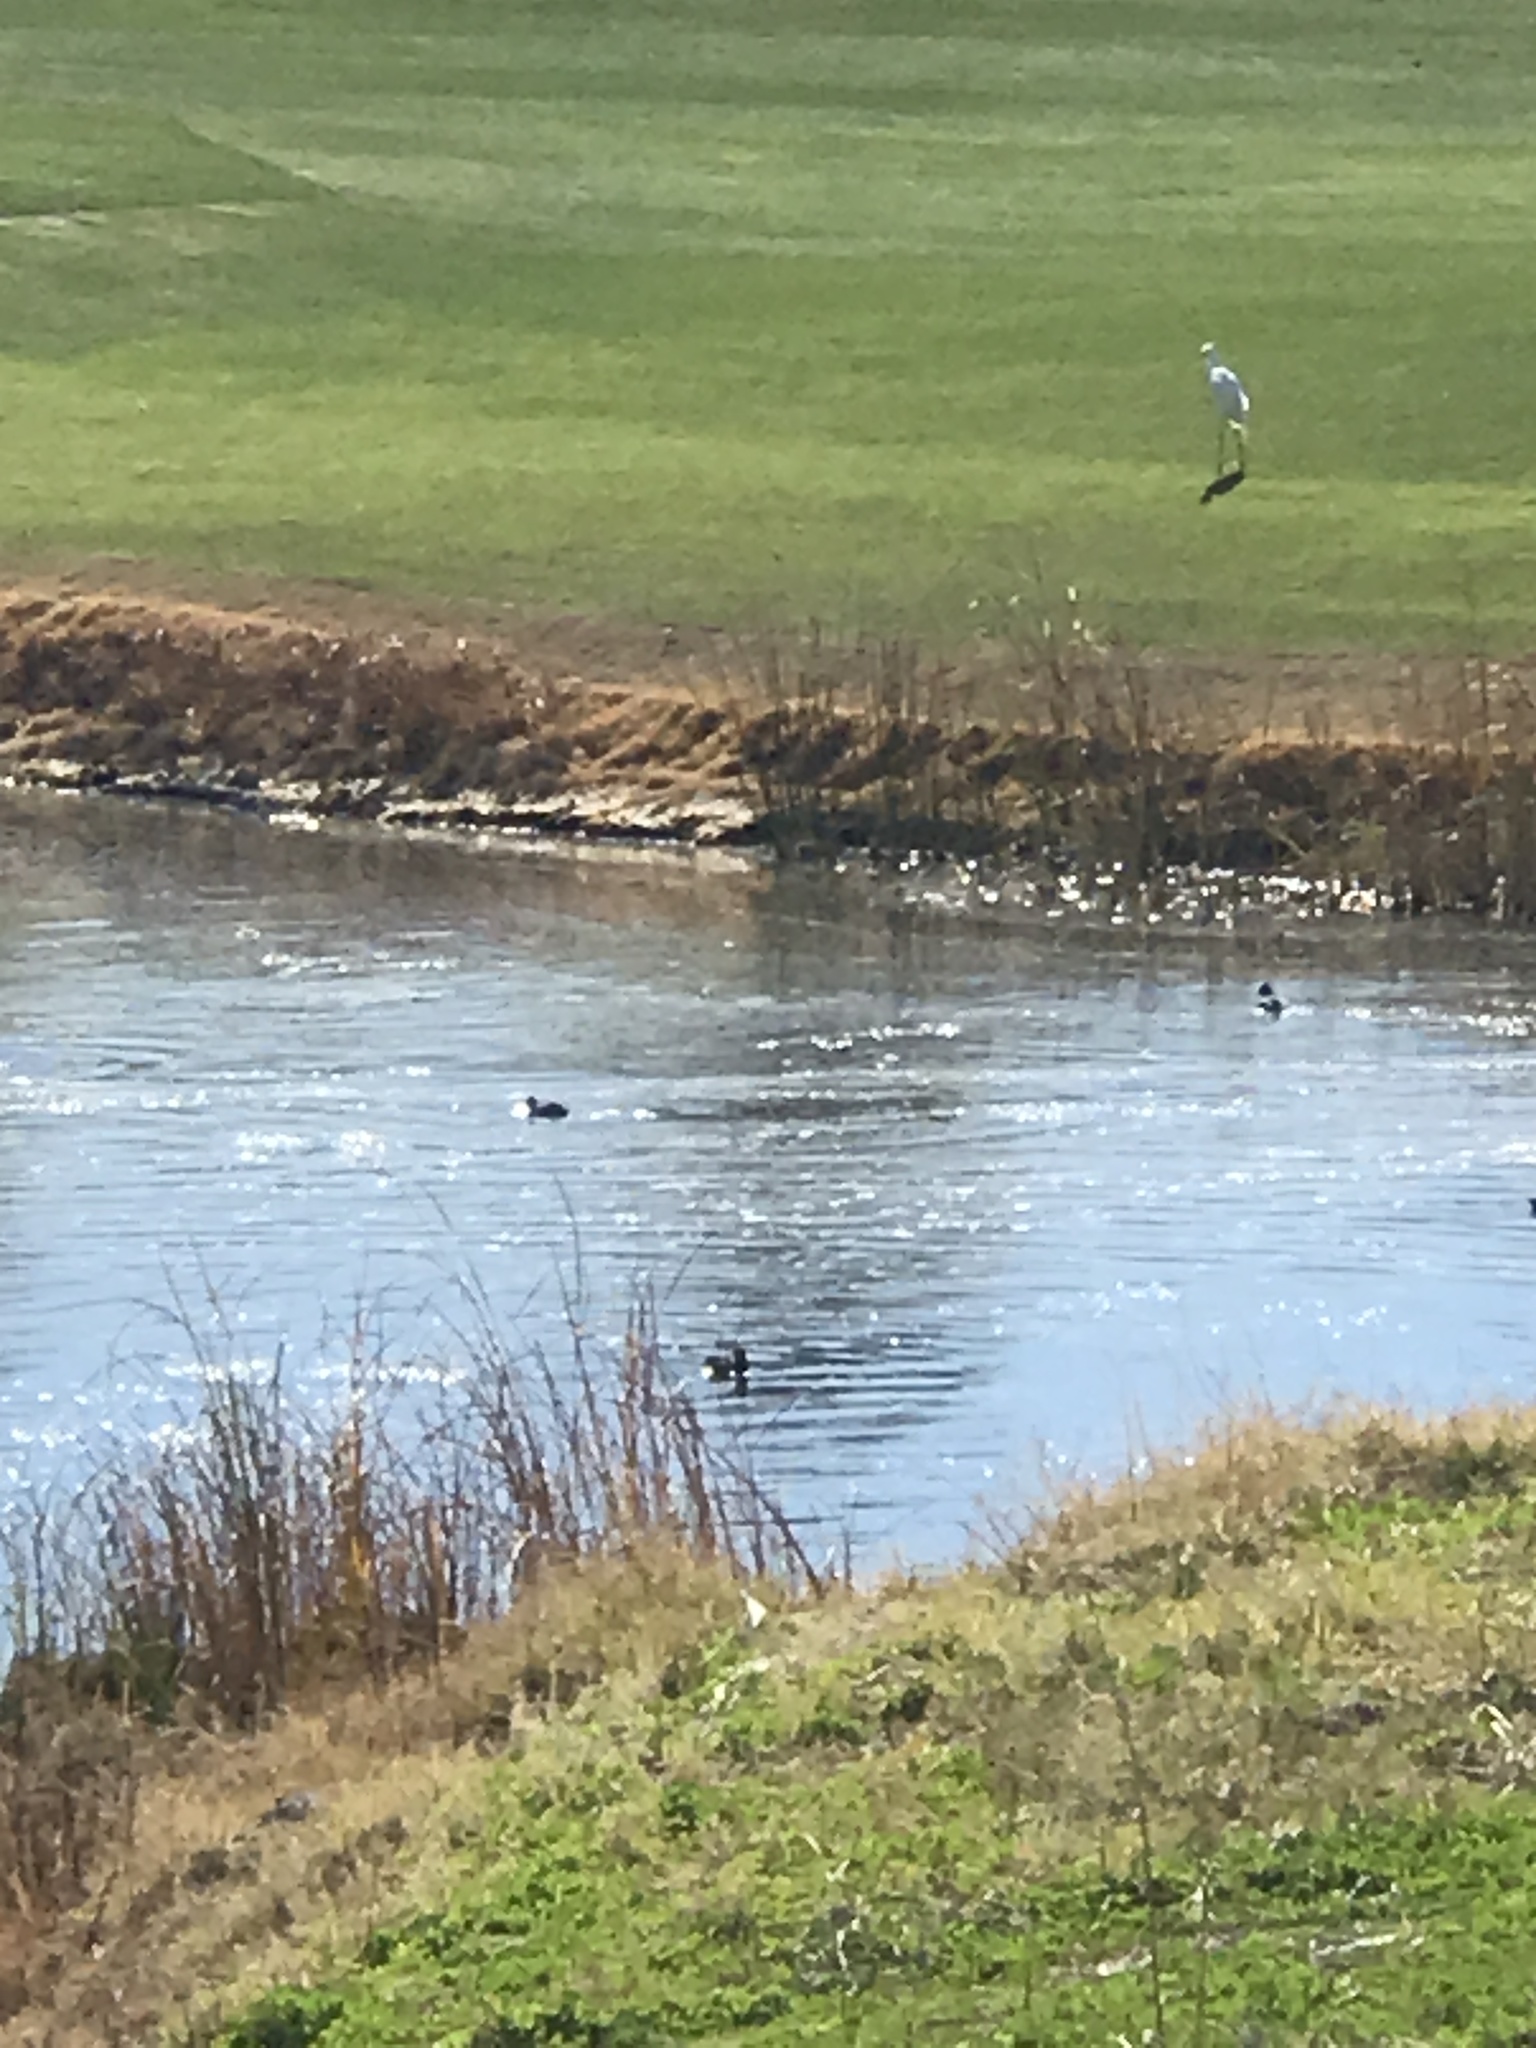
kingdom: Animalia
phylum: Chordata
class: Aves
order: Pelecaniformes
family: Ardeidae
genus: Ardea
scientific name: Ardea alba
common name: Great egret
